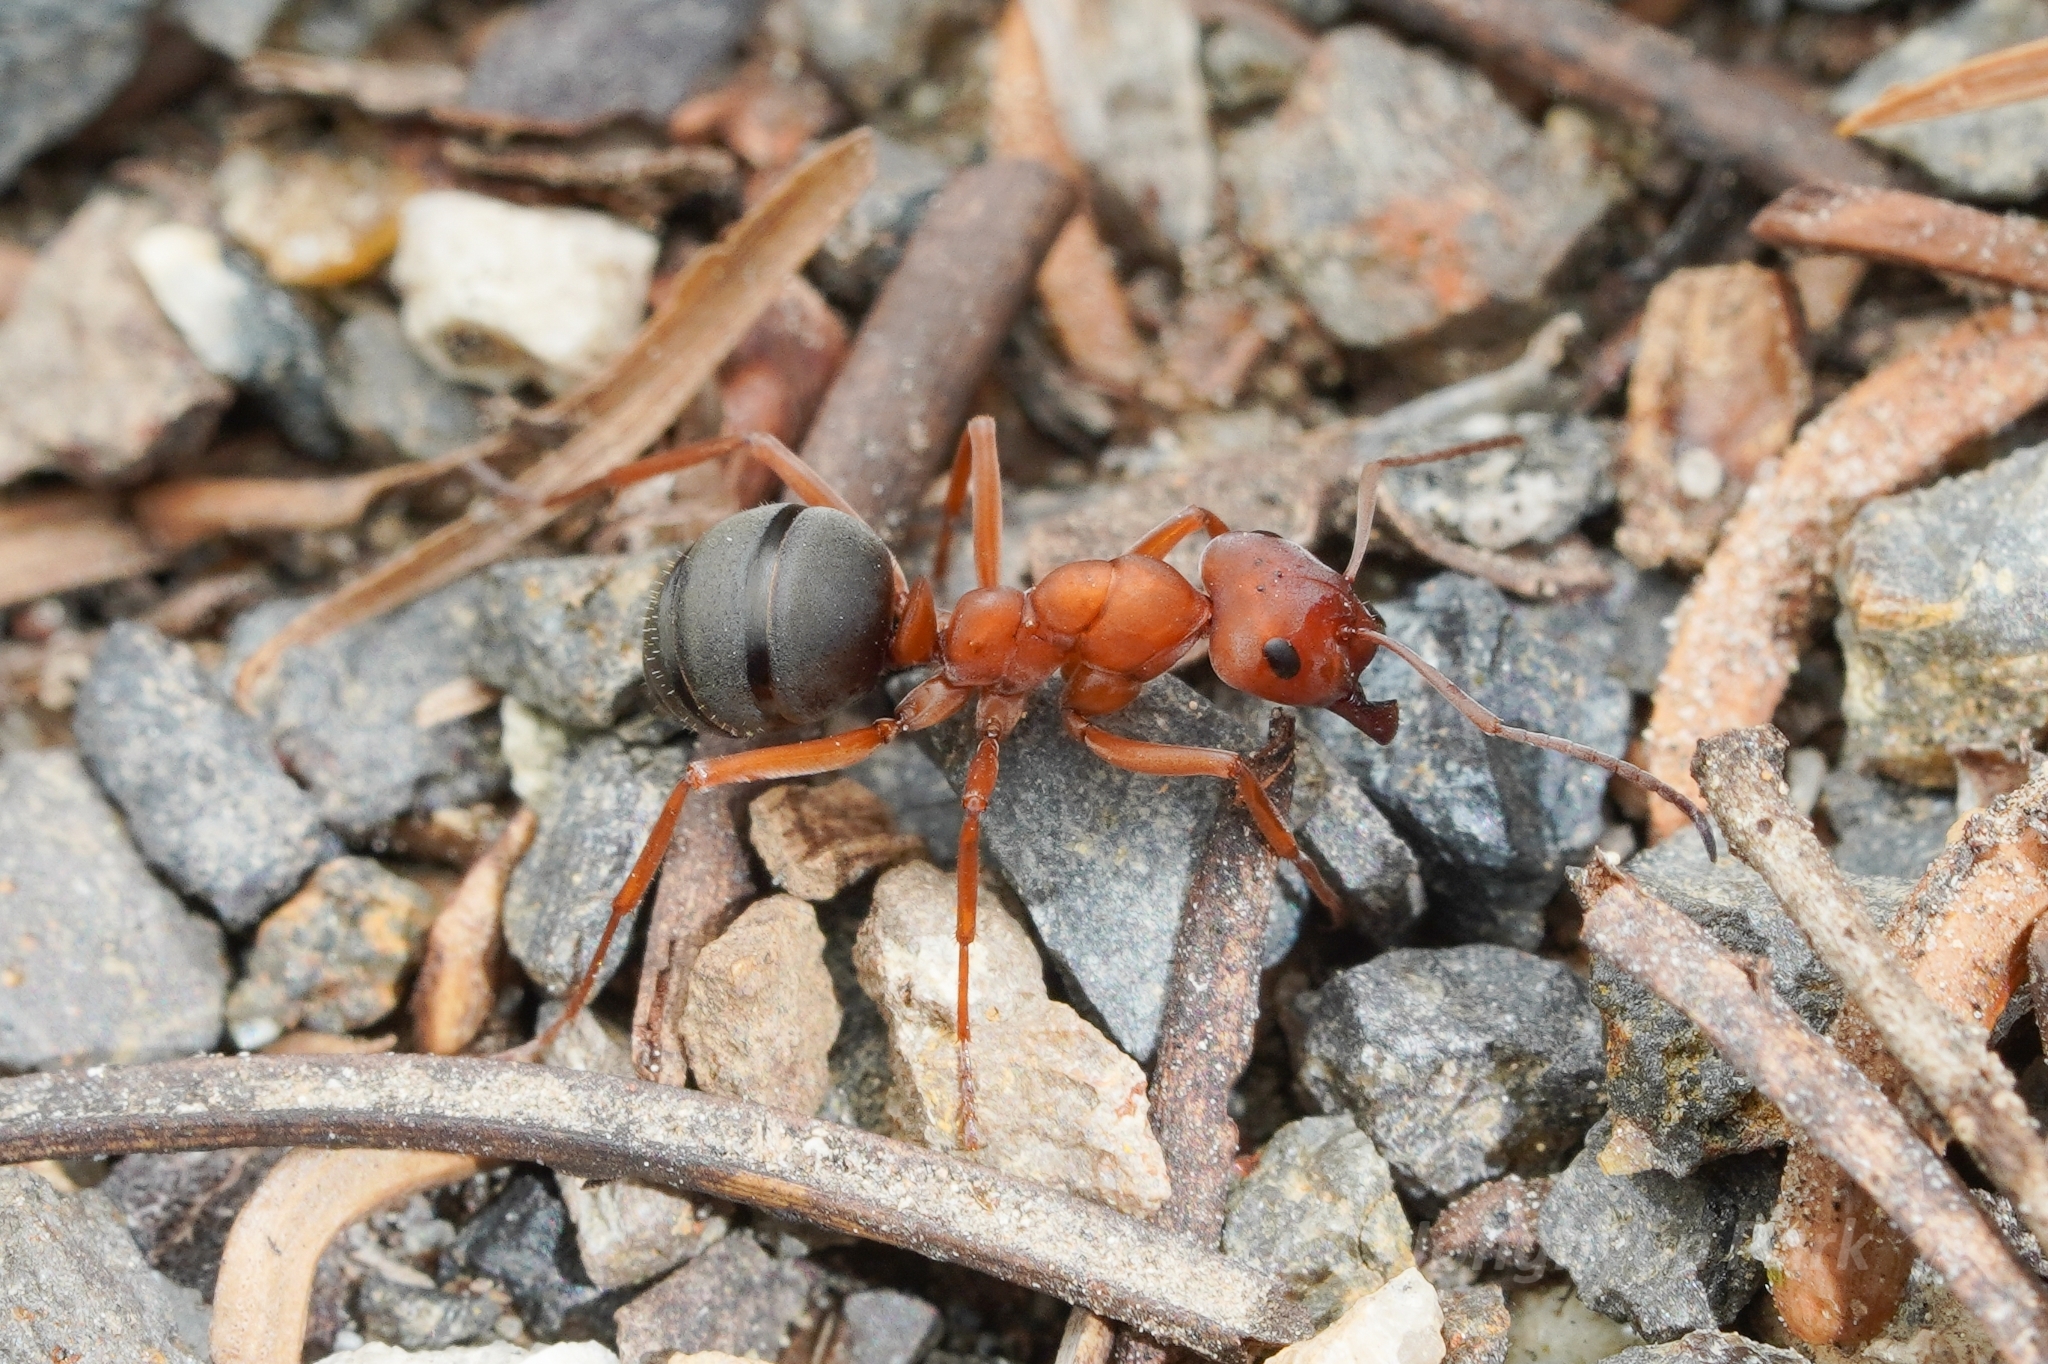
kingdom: Animalia
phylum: Arthropoda
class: Insecta
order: Hymenoptera
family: Formicidae
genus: Formica
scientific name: Formica integroides
